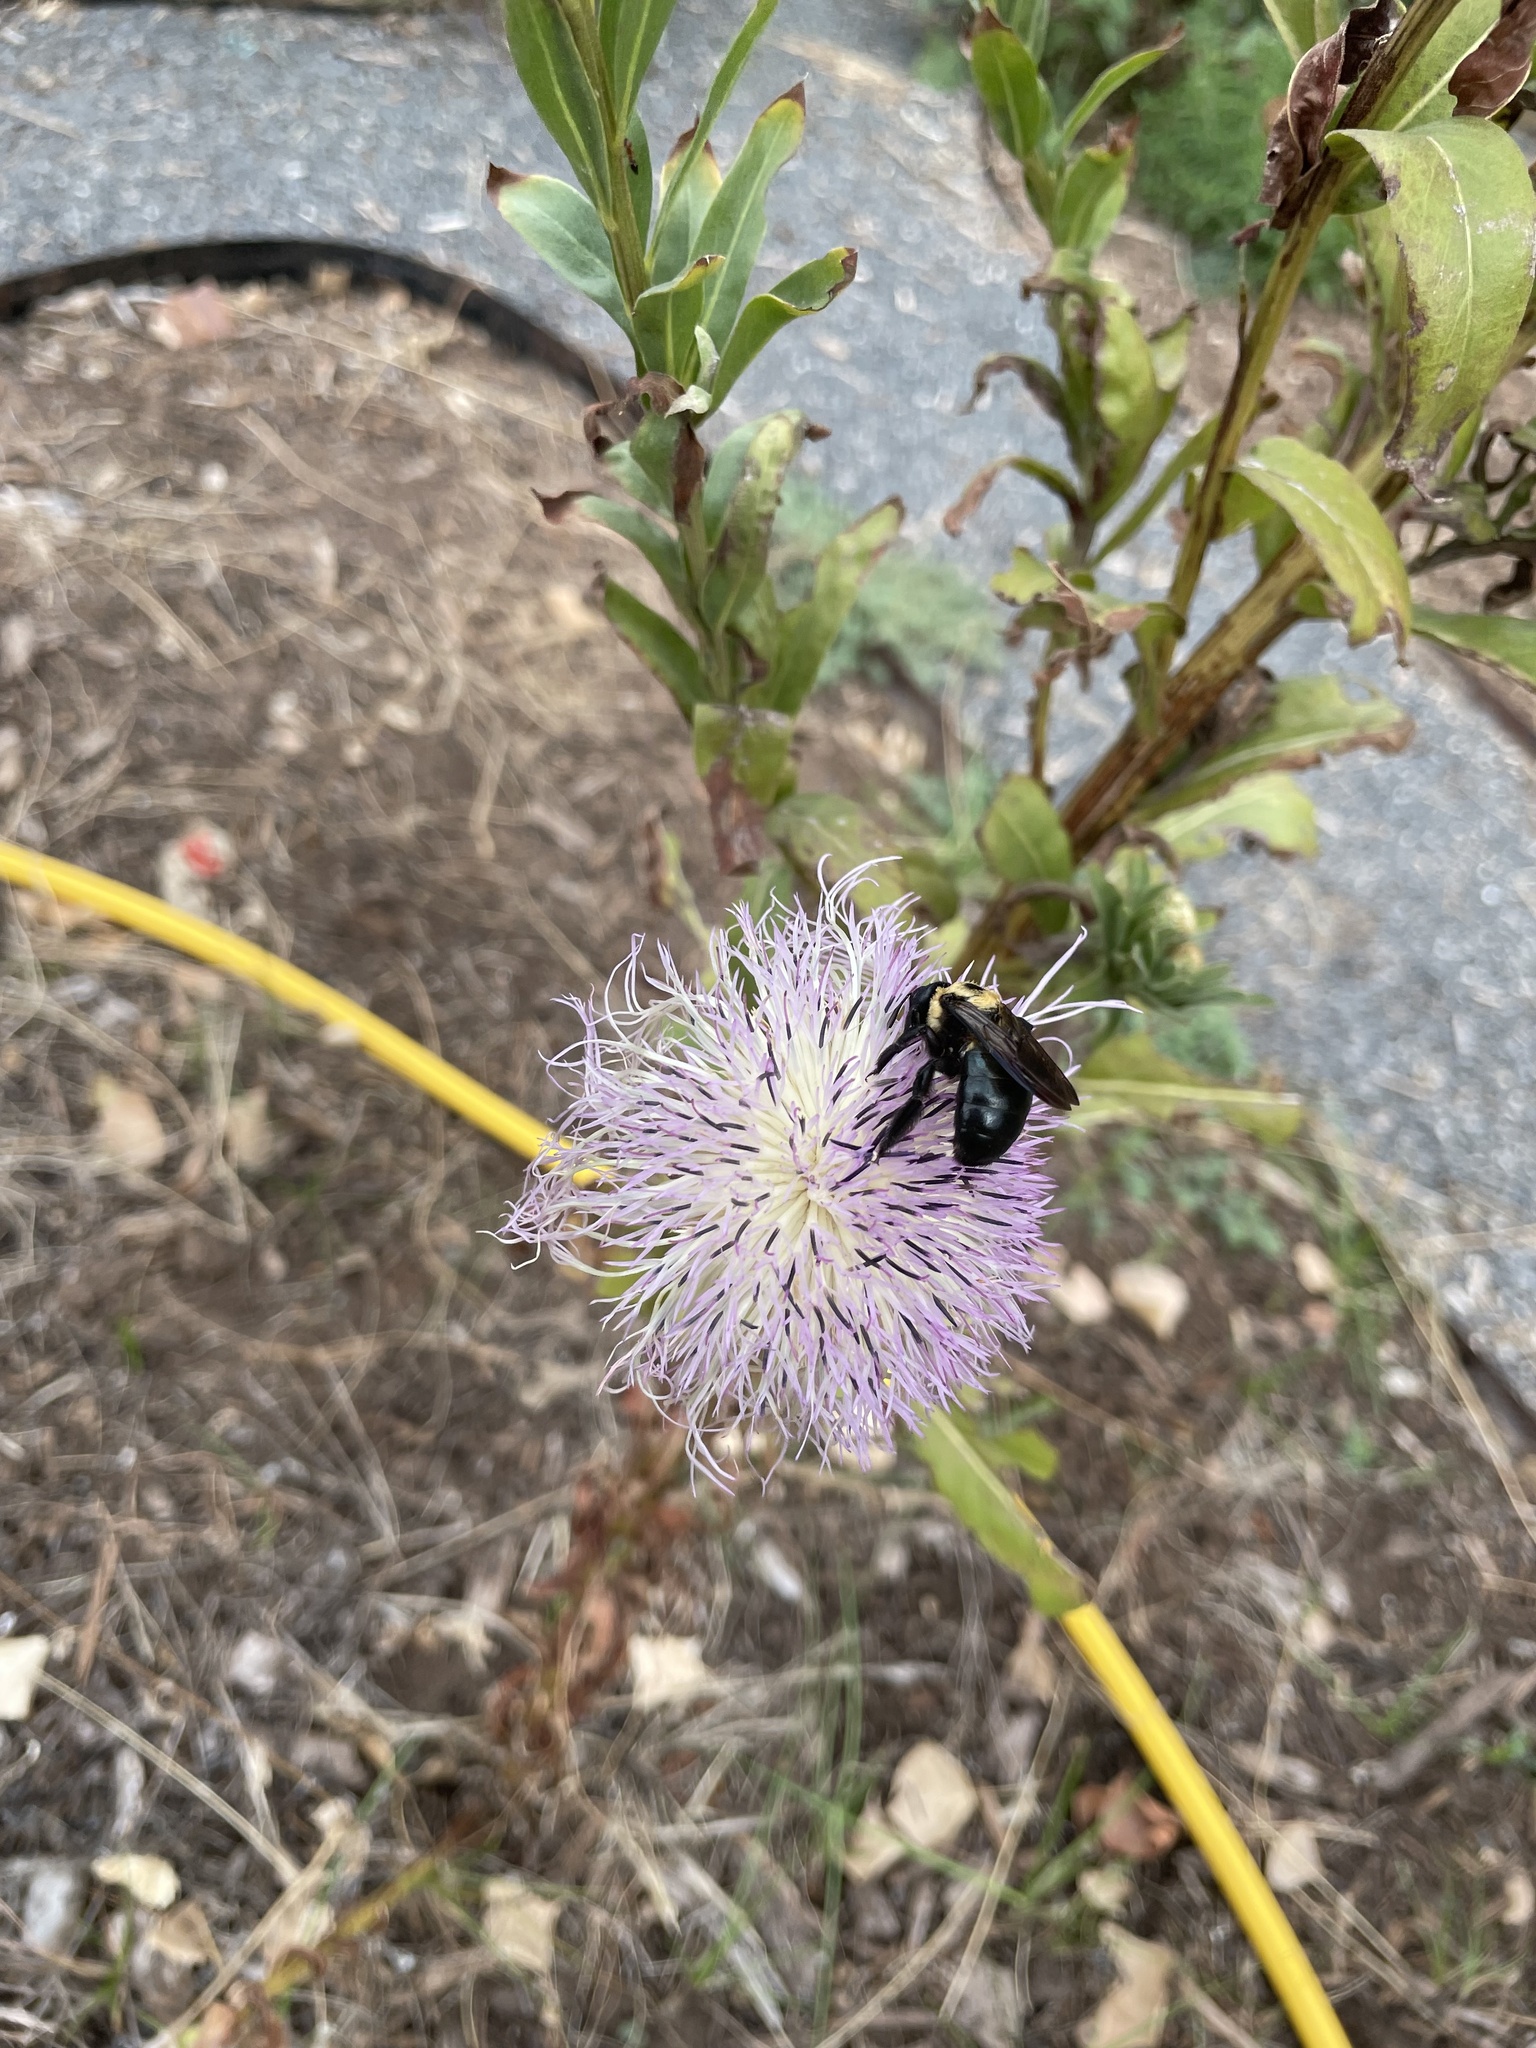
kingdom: Animalia
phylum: Arthropoda
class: Insecta
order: Hymenoptera
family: Apidae
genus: Xylocopa
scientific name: Xylocopa virginica
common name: Carpenter bee
